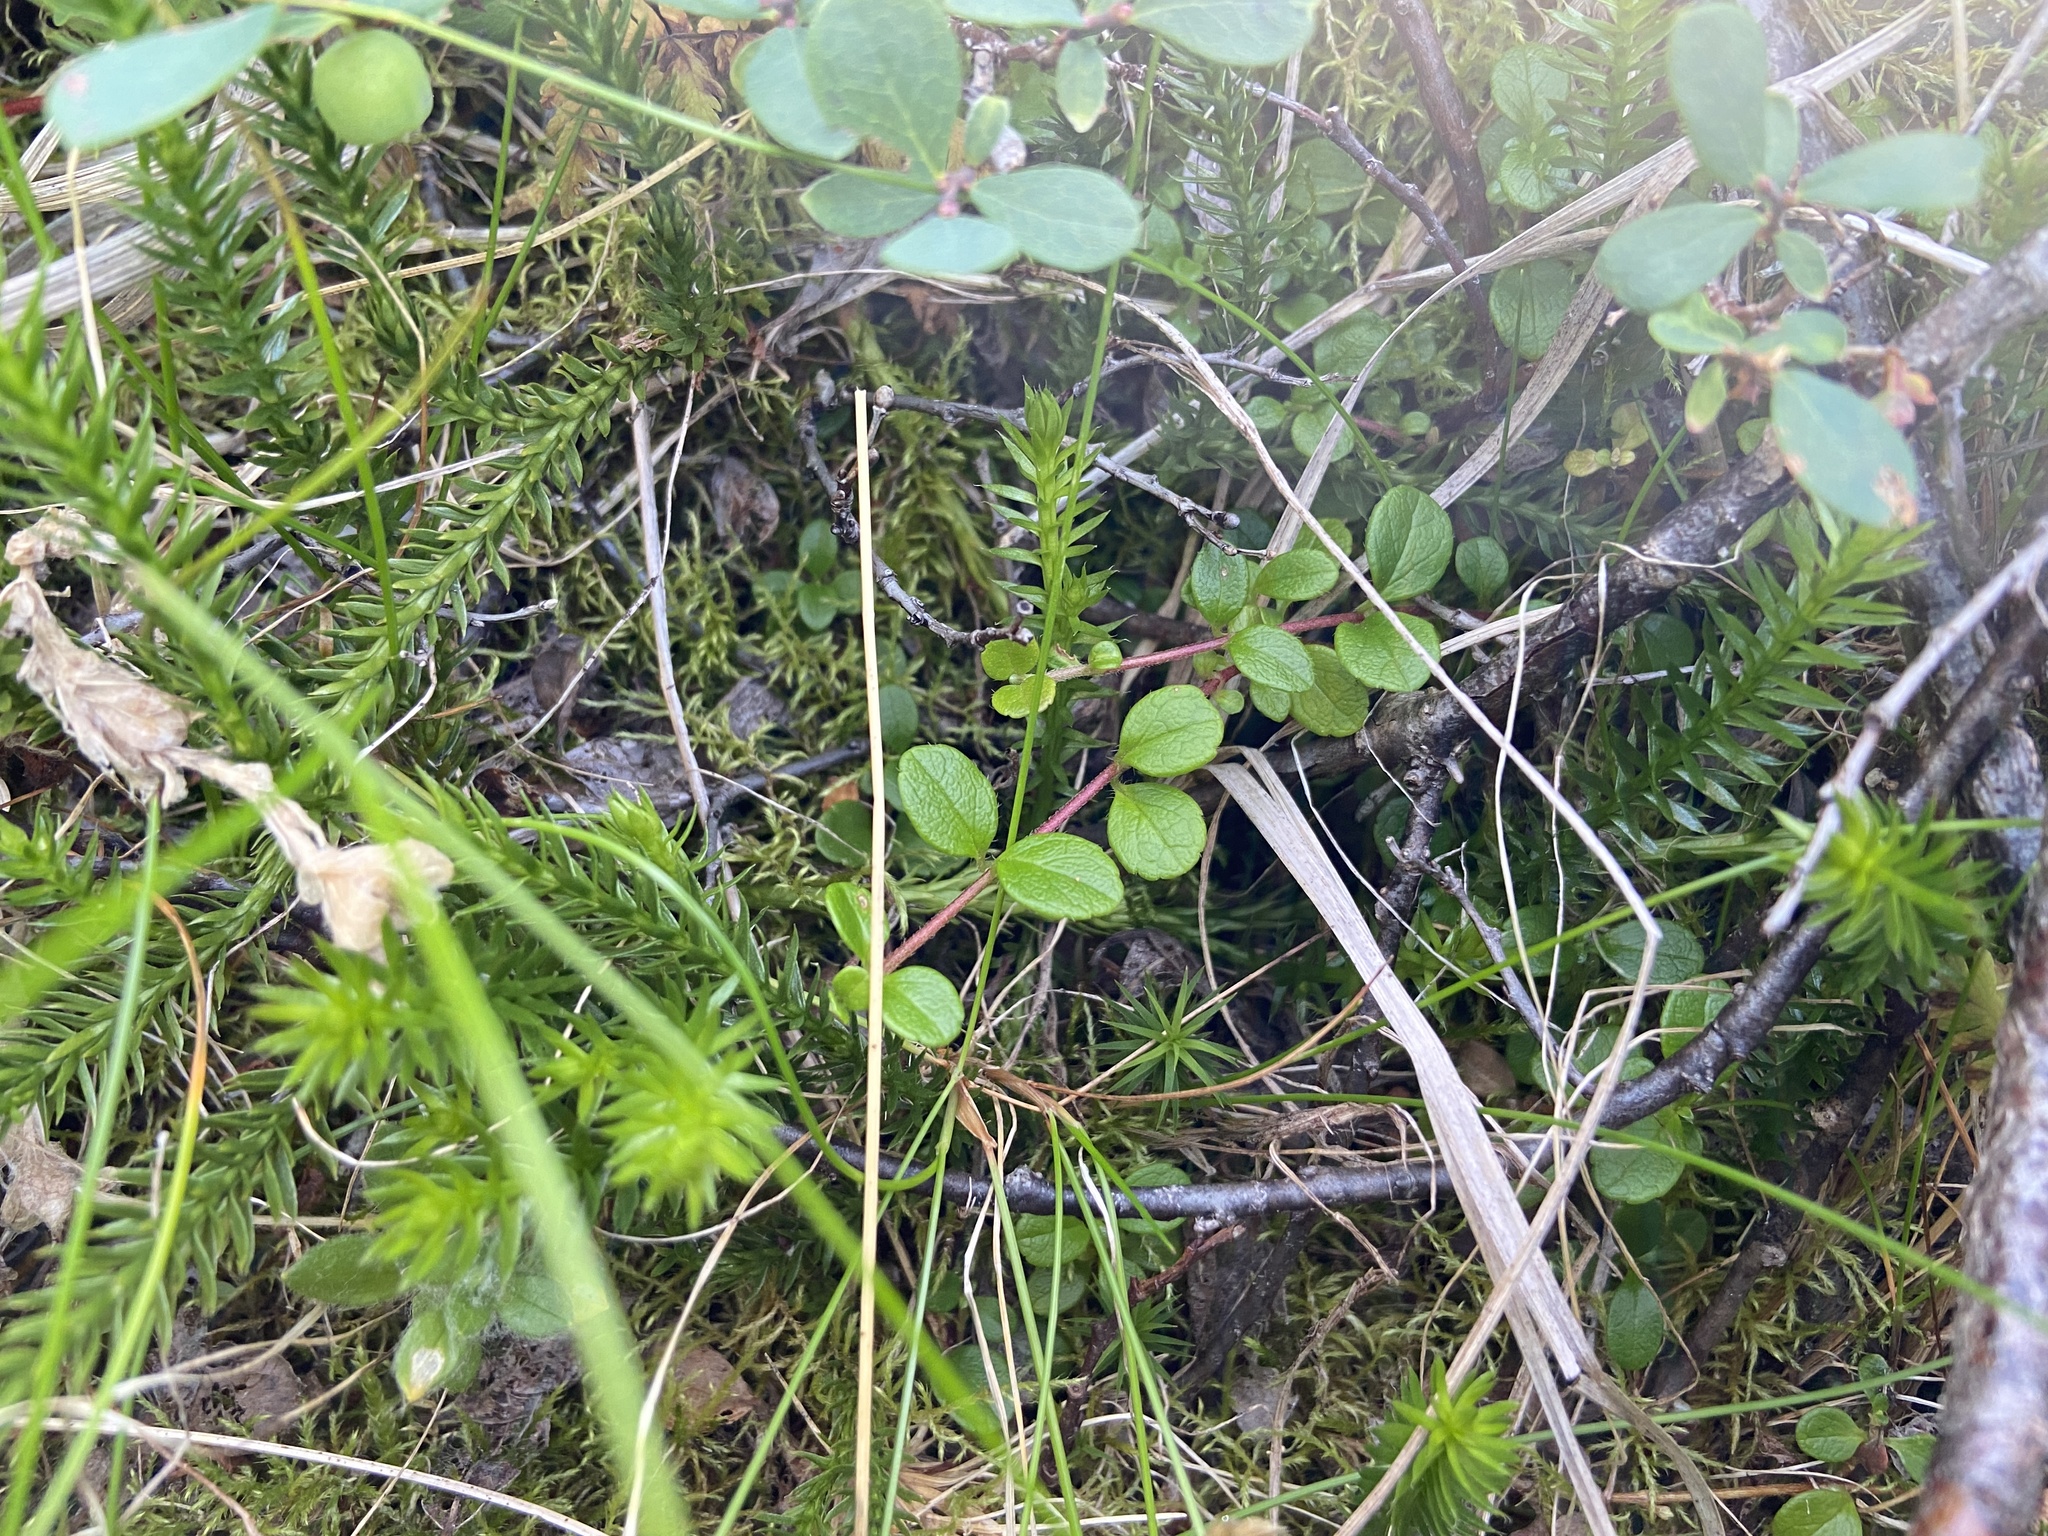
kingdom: Plantae
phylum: Tracheophyta
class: Magnoliopsida
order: Dipsacales
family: Caprifoliaceae
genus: Linnaea
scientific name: Linnaea borealis
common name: Twinflower
